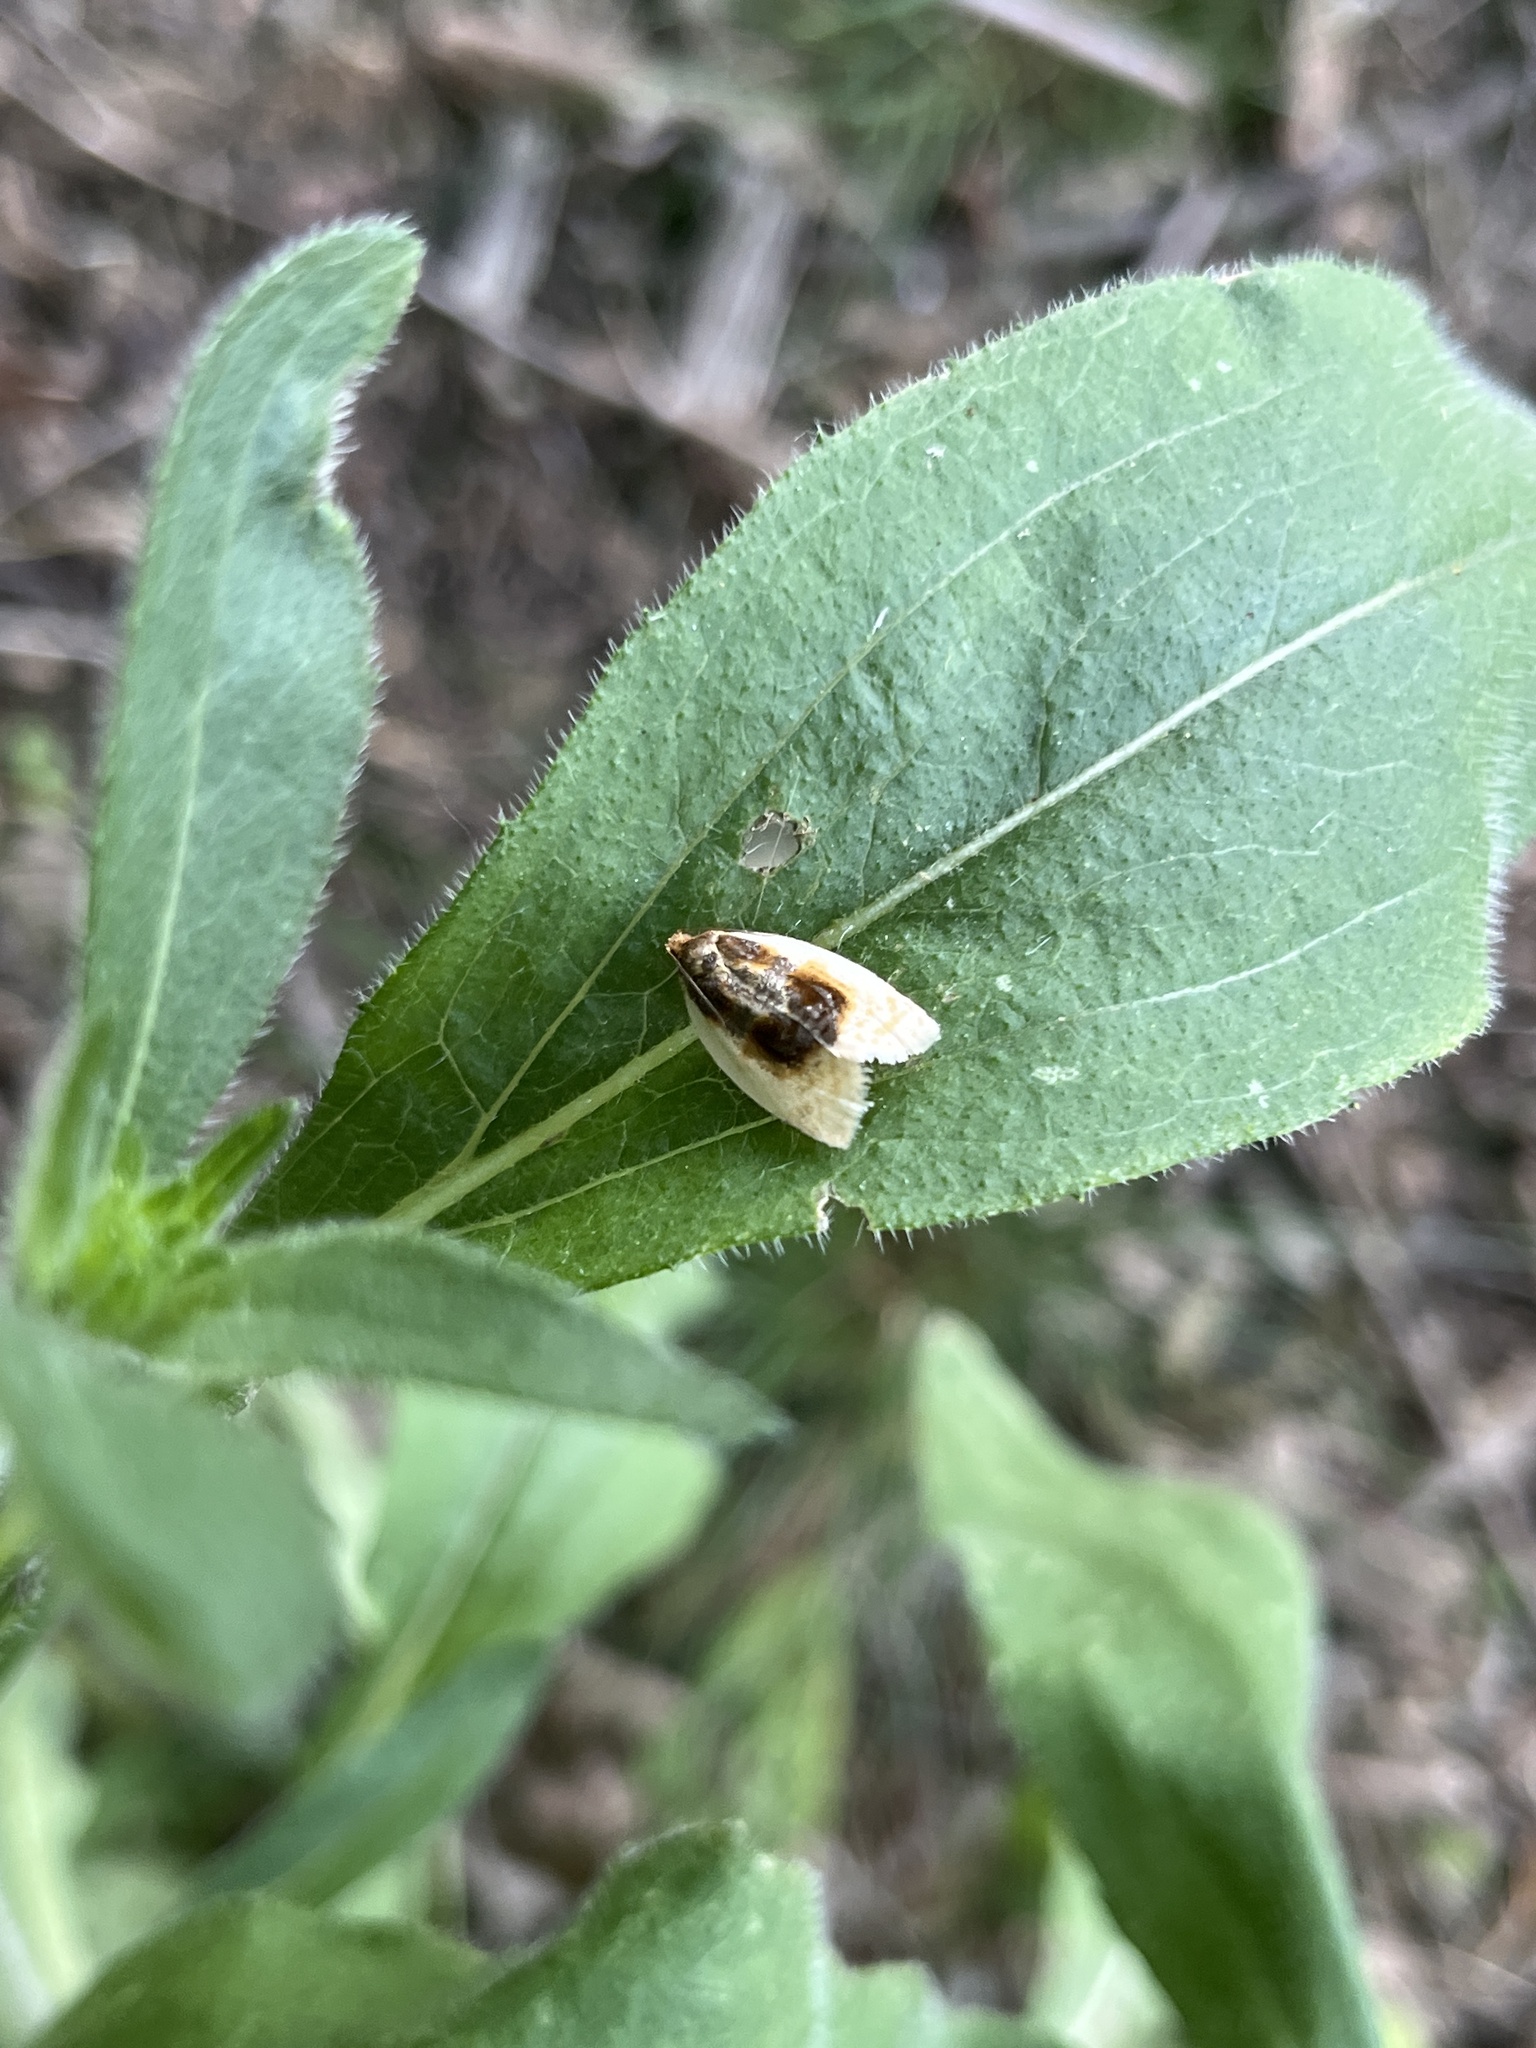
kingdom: Animalia
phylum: Arthropoda
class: Insecta
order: Lepidoptera
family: Tortricidae
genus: Clepsis
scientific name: Clepsis melaleucanus
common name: American apple tortrix
